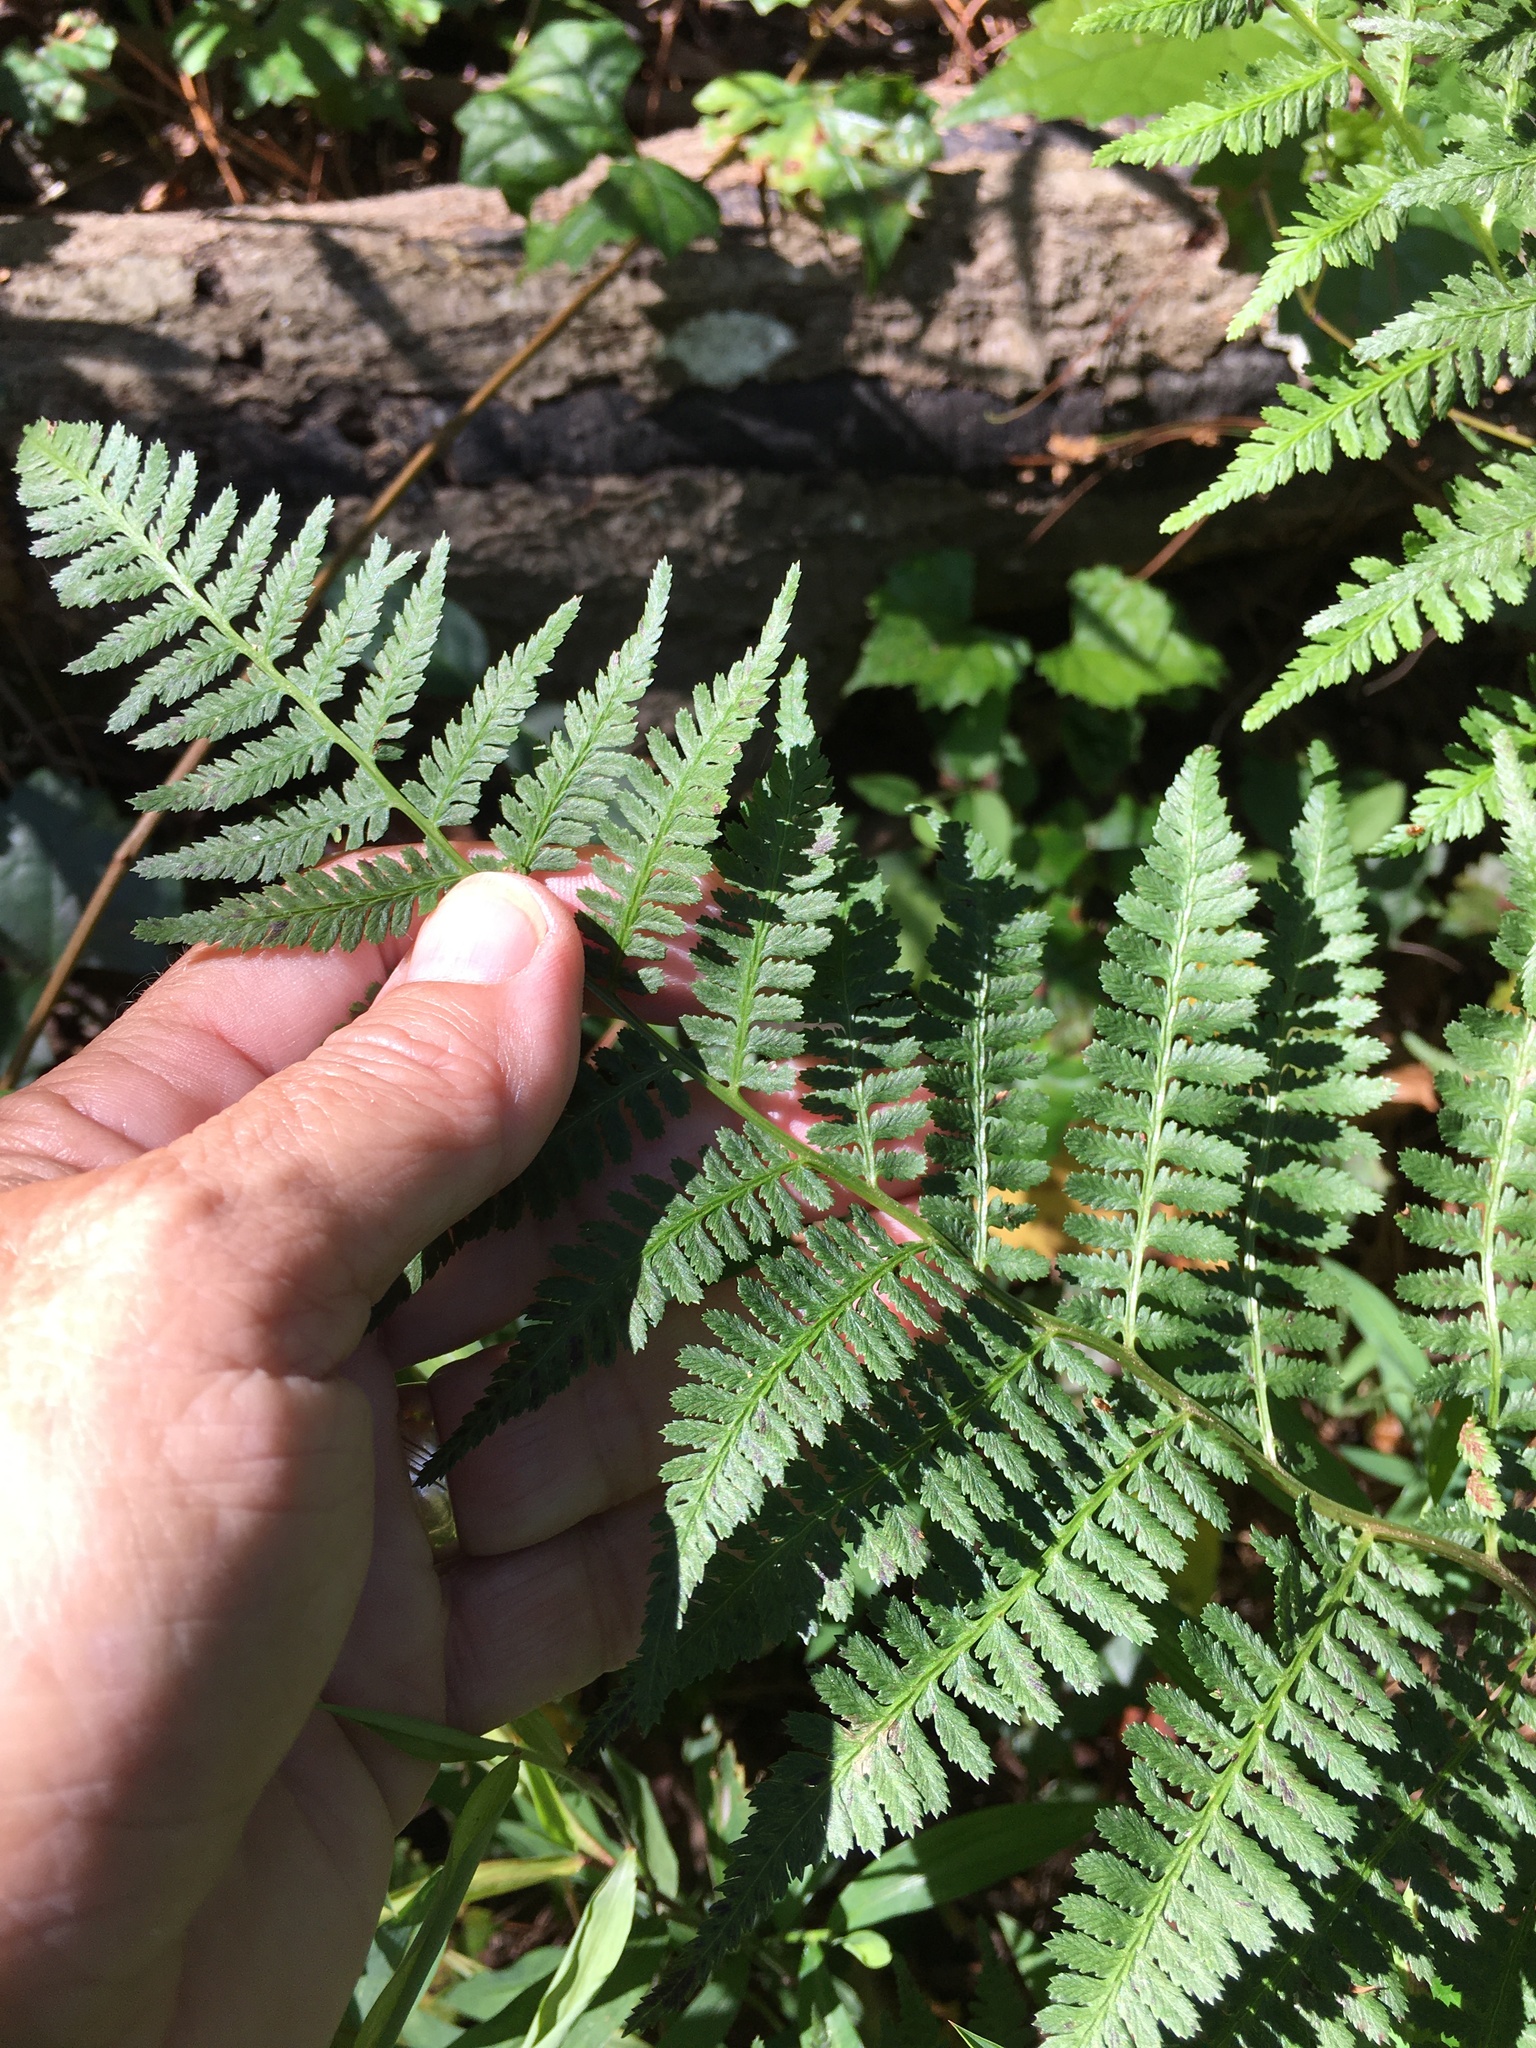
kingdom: Plantae
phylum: Tracheophyta
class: Polypodiopsida
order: Polypodiales
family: Athyriaceae
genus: Athyrium
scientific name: Athyrium asplenioides
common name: Southern lady fern
